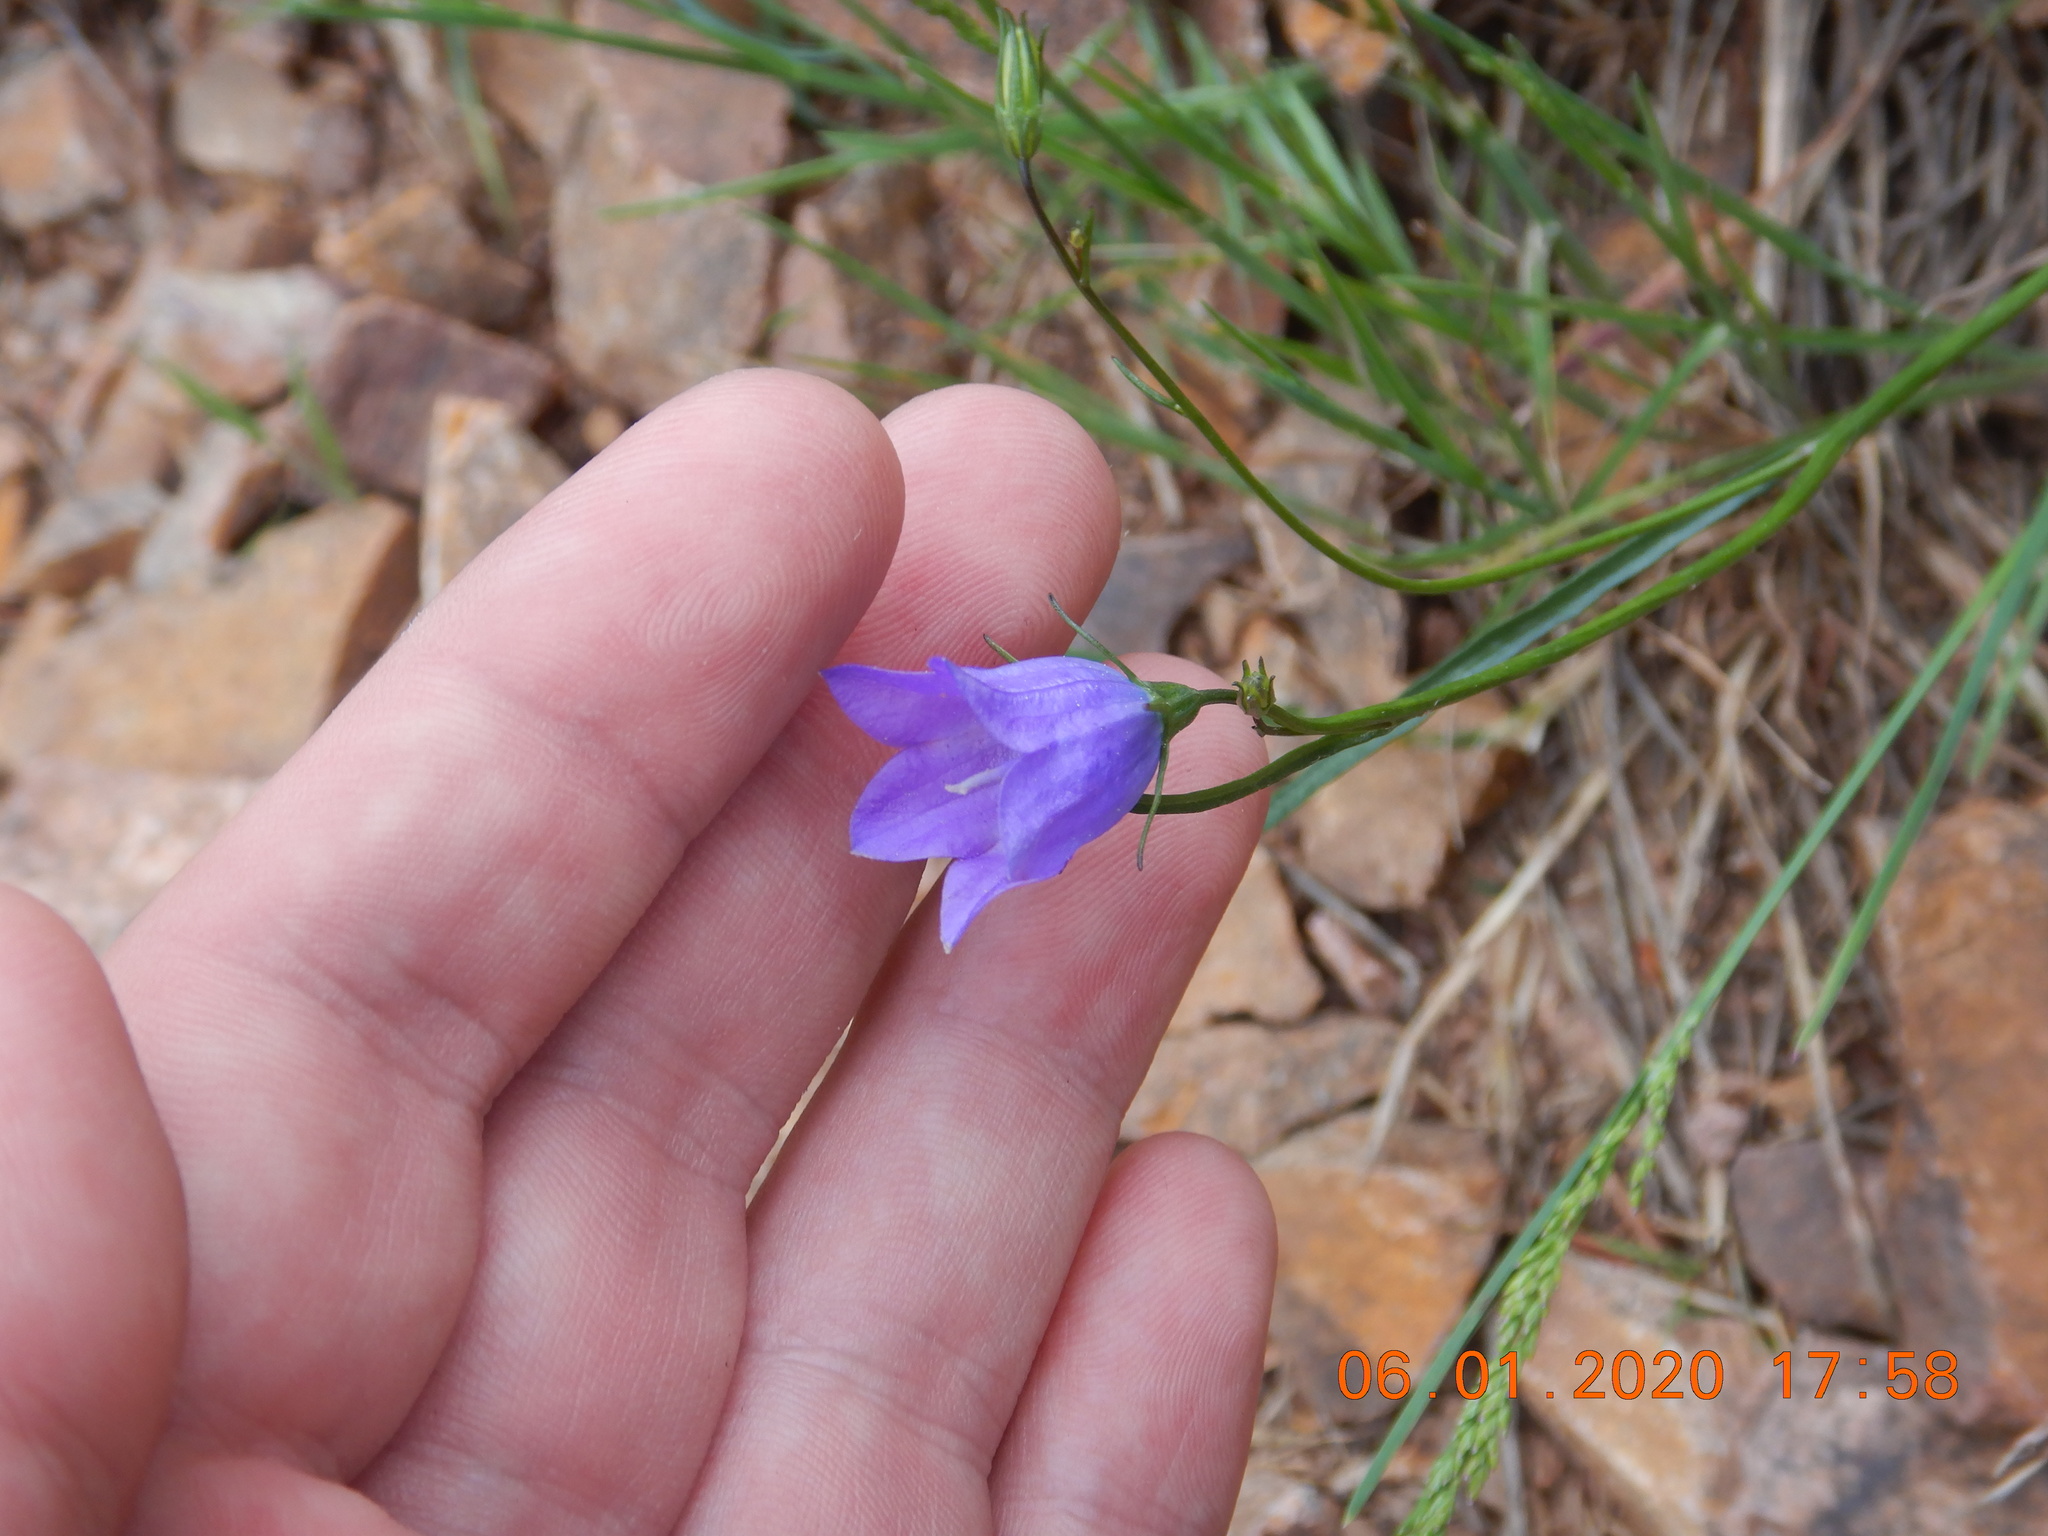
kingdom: Plantae
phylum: Tracheophyta
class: Magnoliopsida
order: Asterales
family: Campanulaceae
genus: Campanula
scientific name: Campanula petiolata
